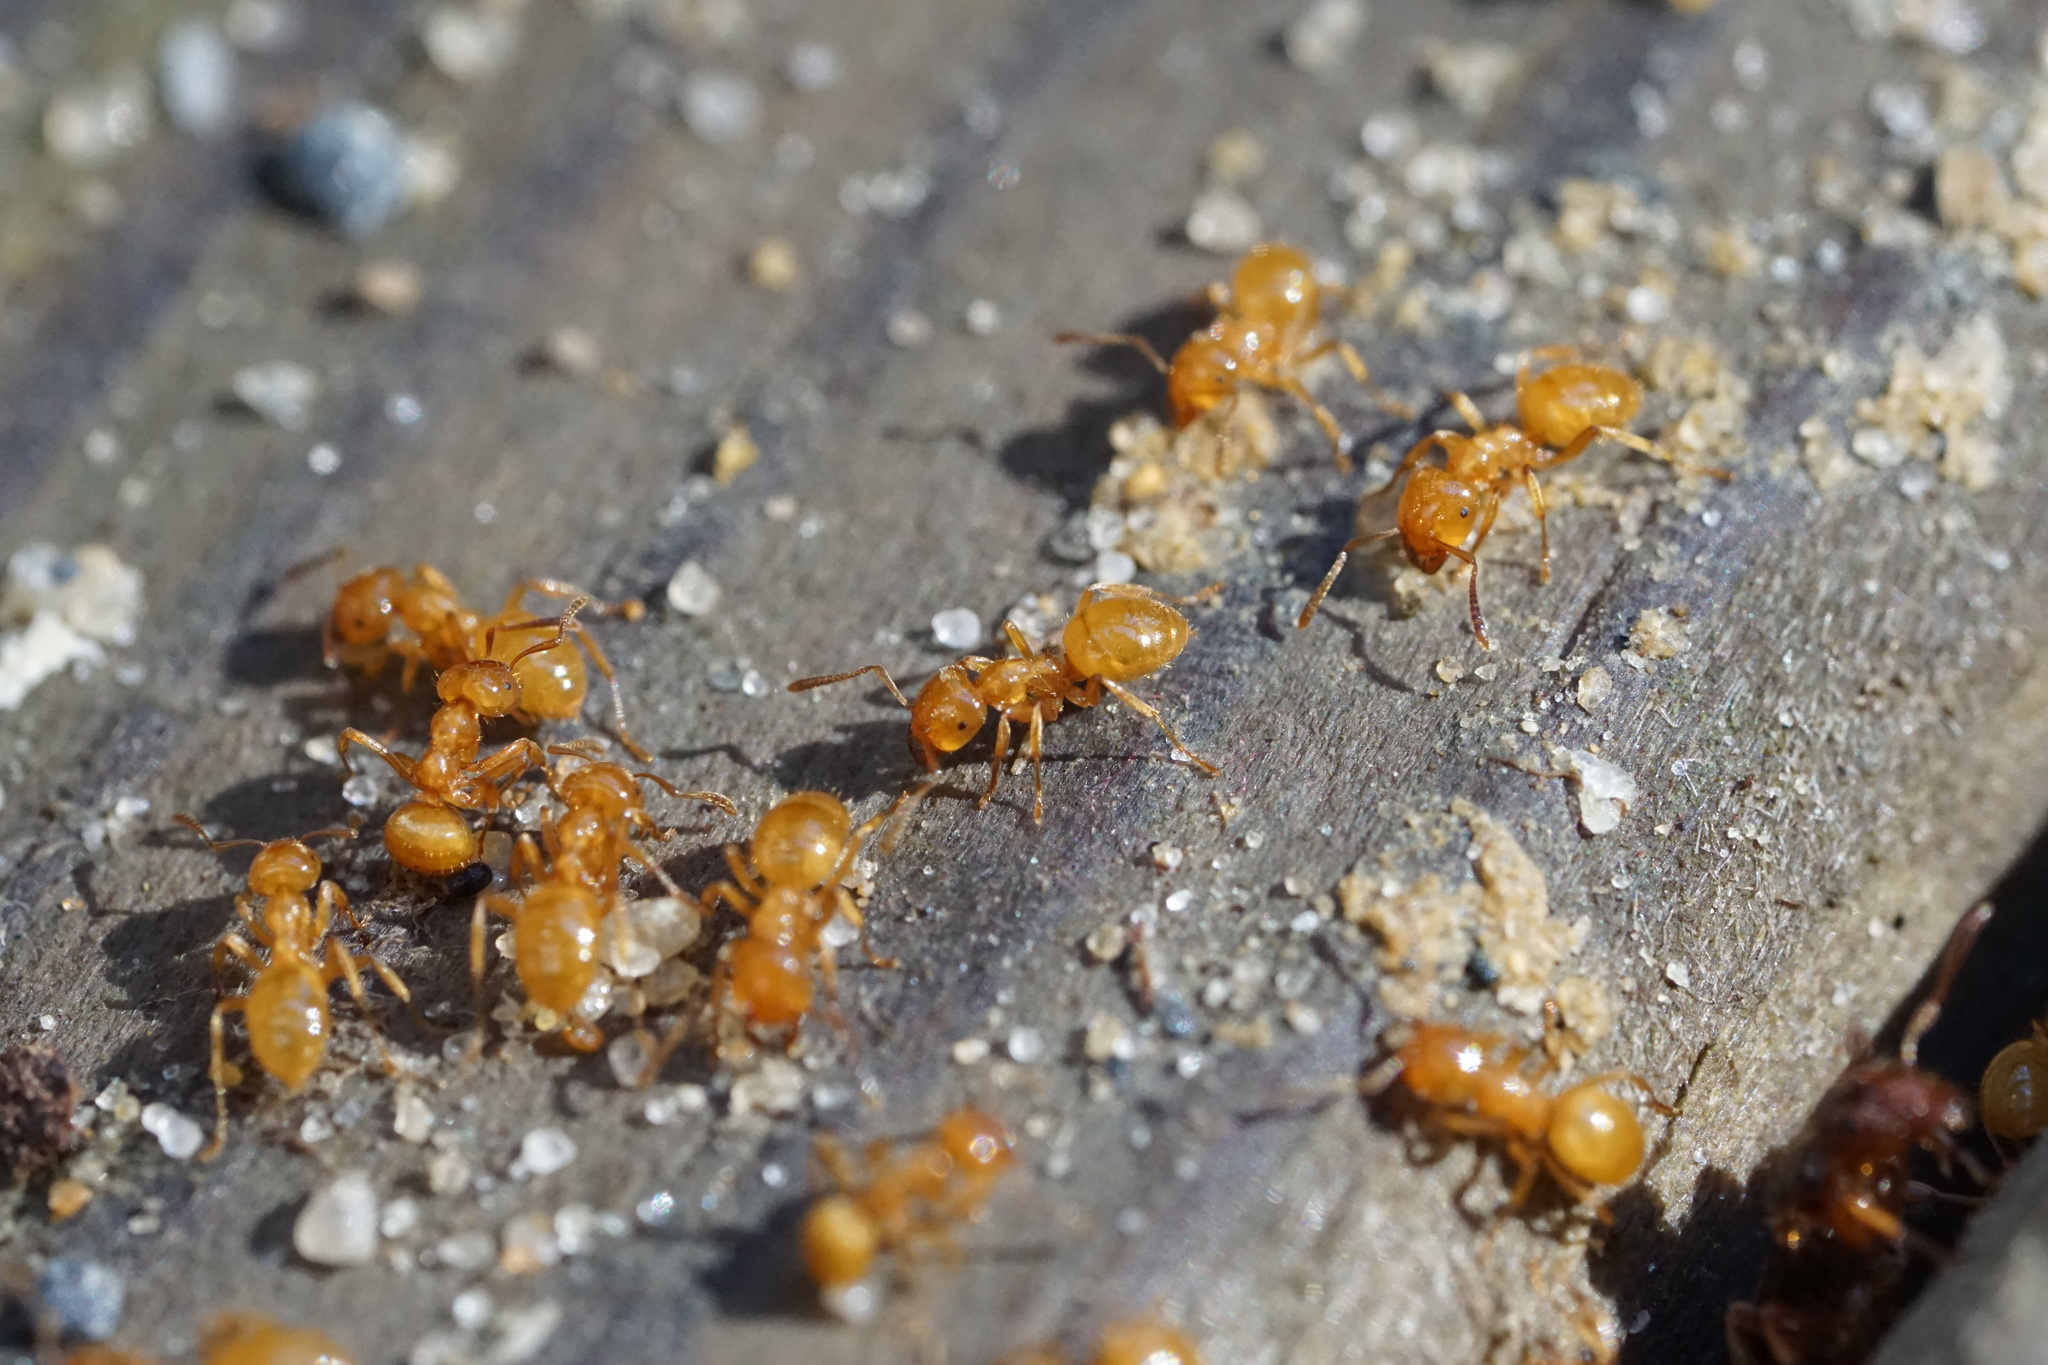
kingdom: Animalia
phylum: Arthropoda
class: Insecta
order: Hymenoptera
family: Formicidae
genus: Lasius
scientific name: Lasius claviger
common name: Common citronella ant
